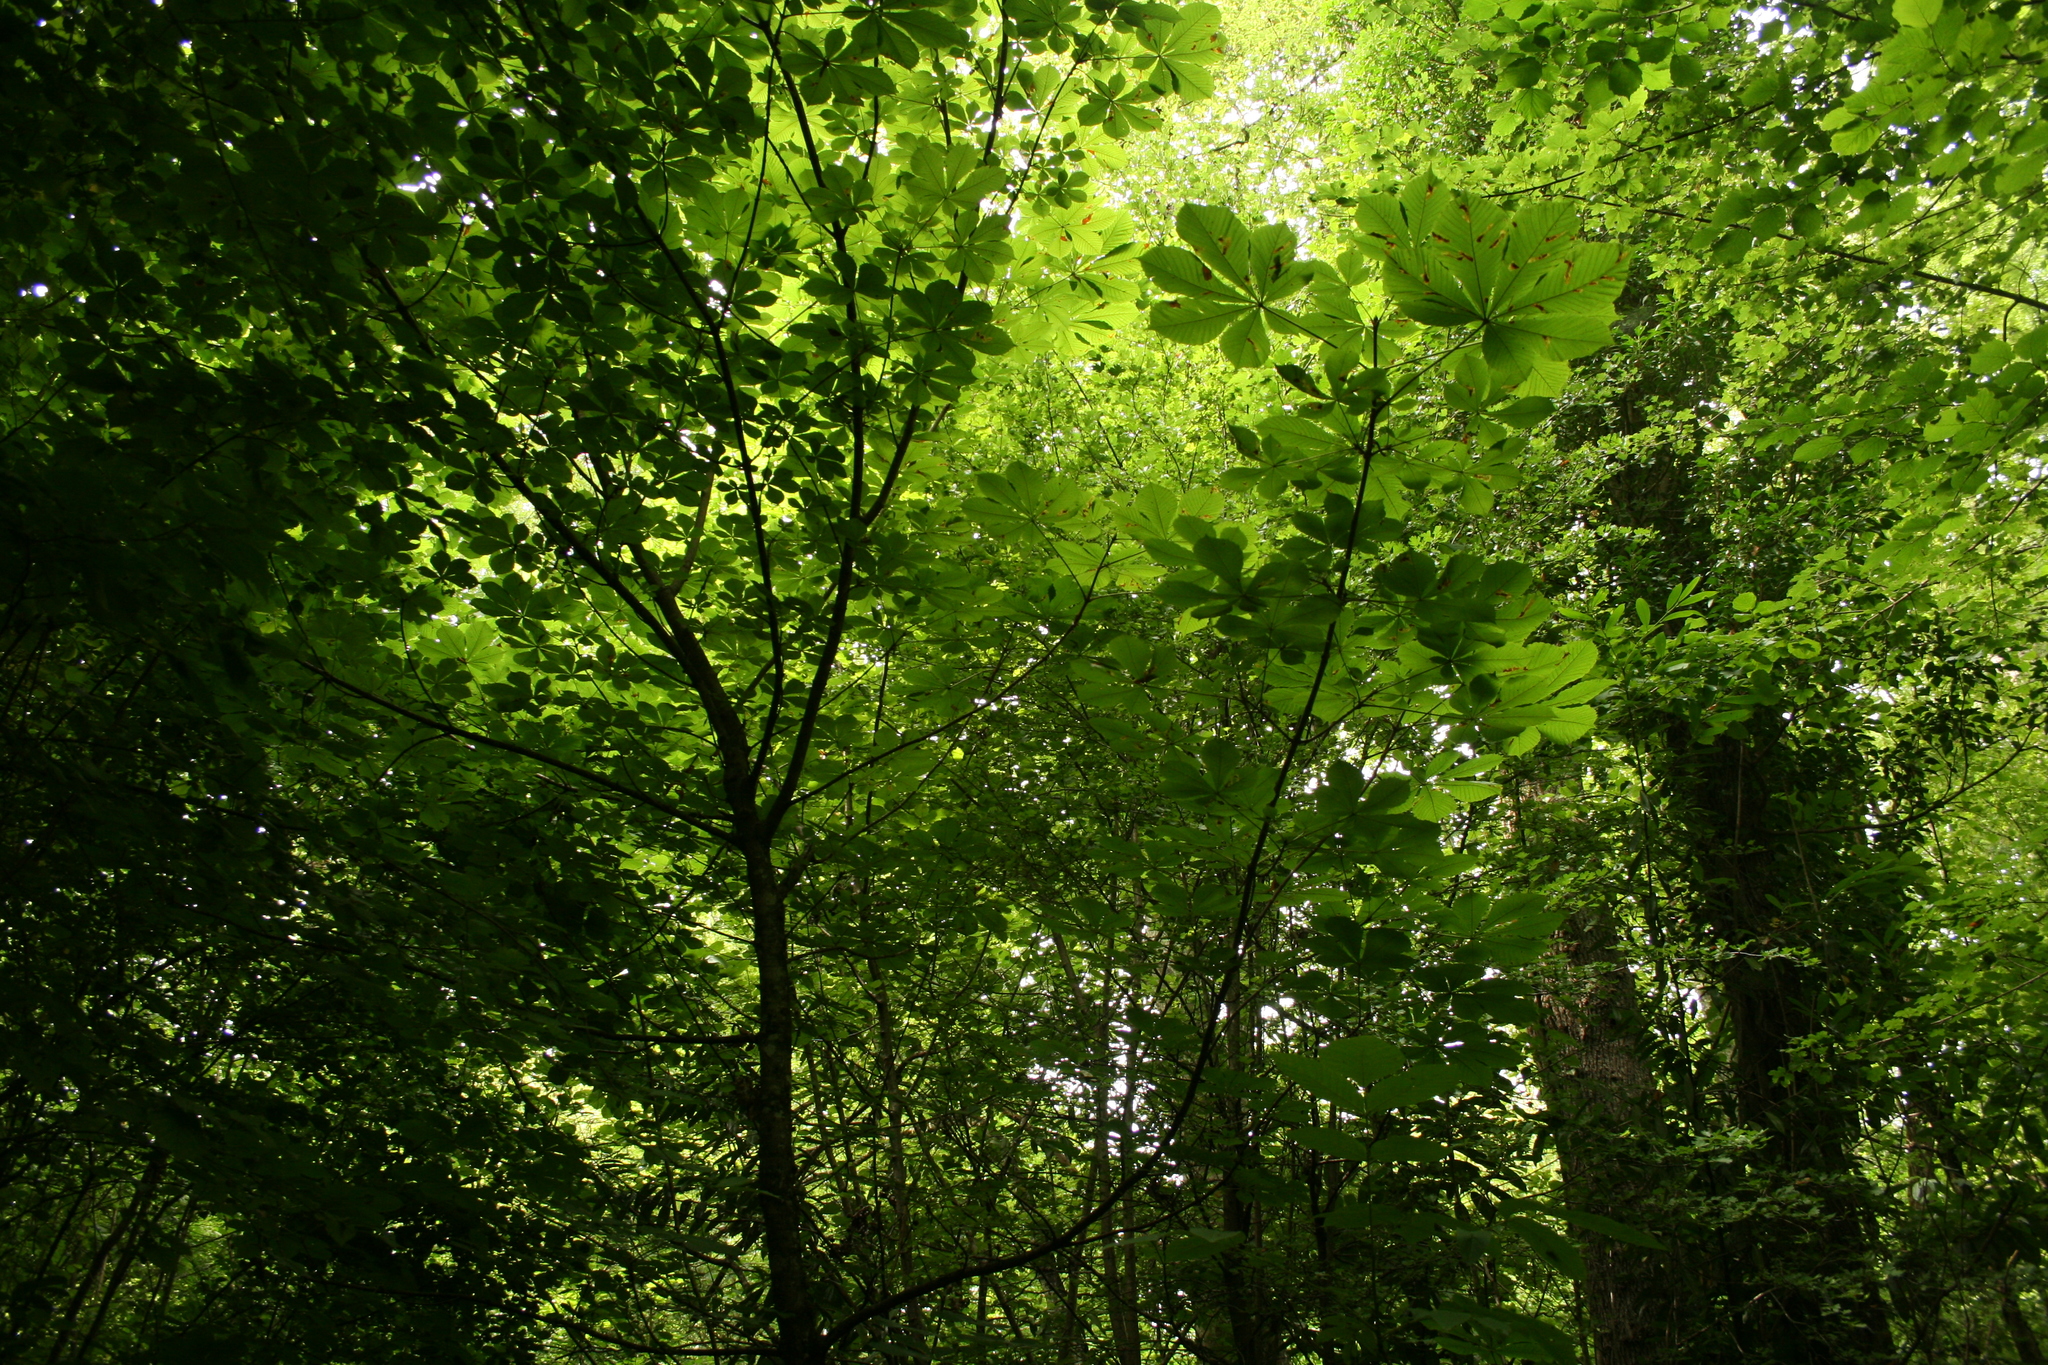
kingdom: Plantae
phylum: Tracheophyta
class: Magnoliopsida
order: Sapindales
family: Sapindaceae
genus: Aesculus
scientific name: Aesculus hippocastanum
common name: Horse-chestnut
